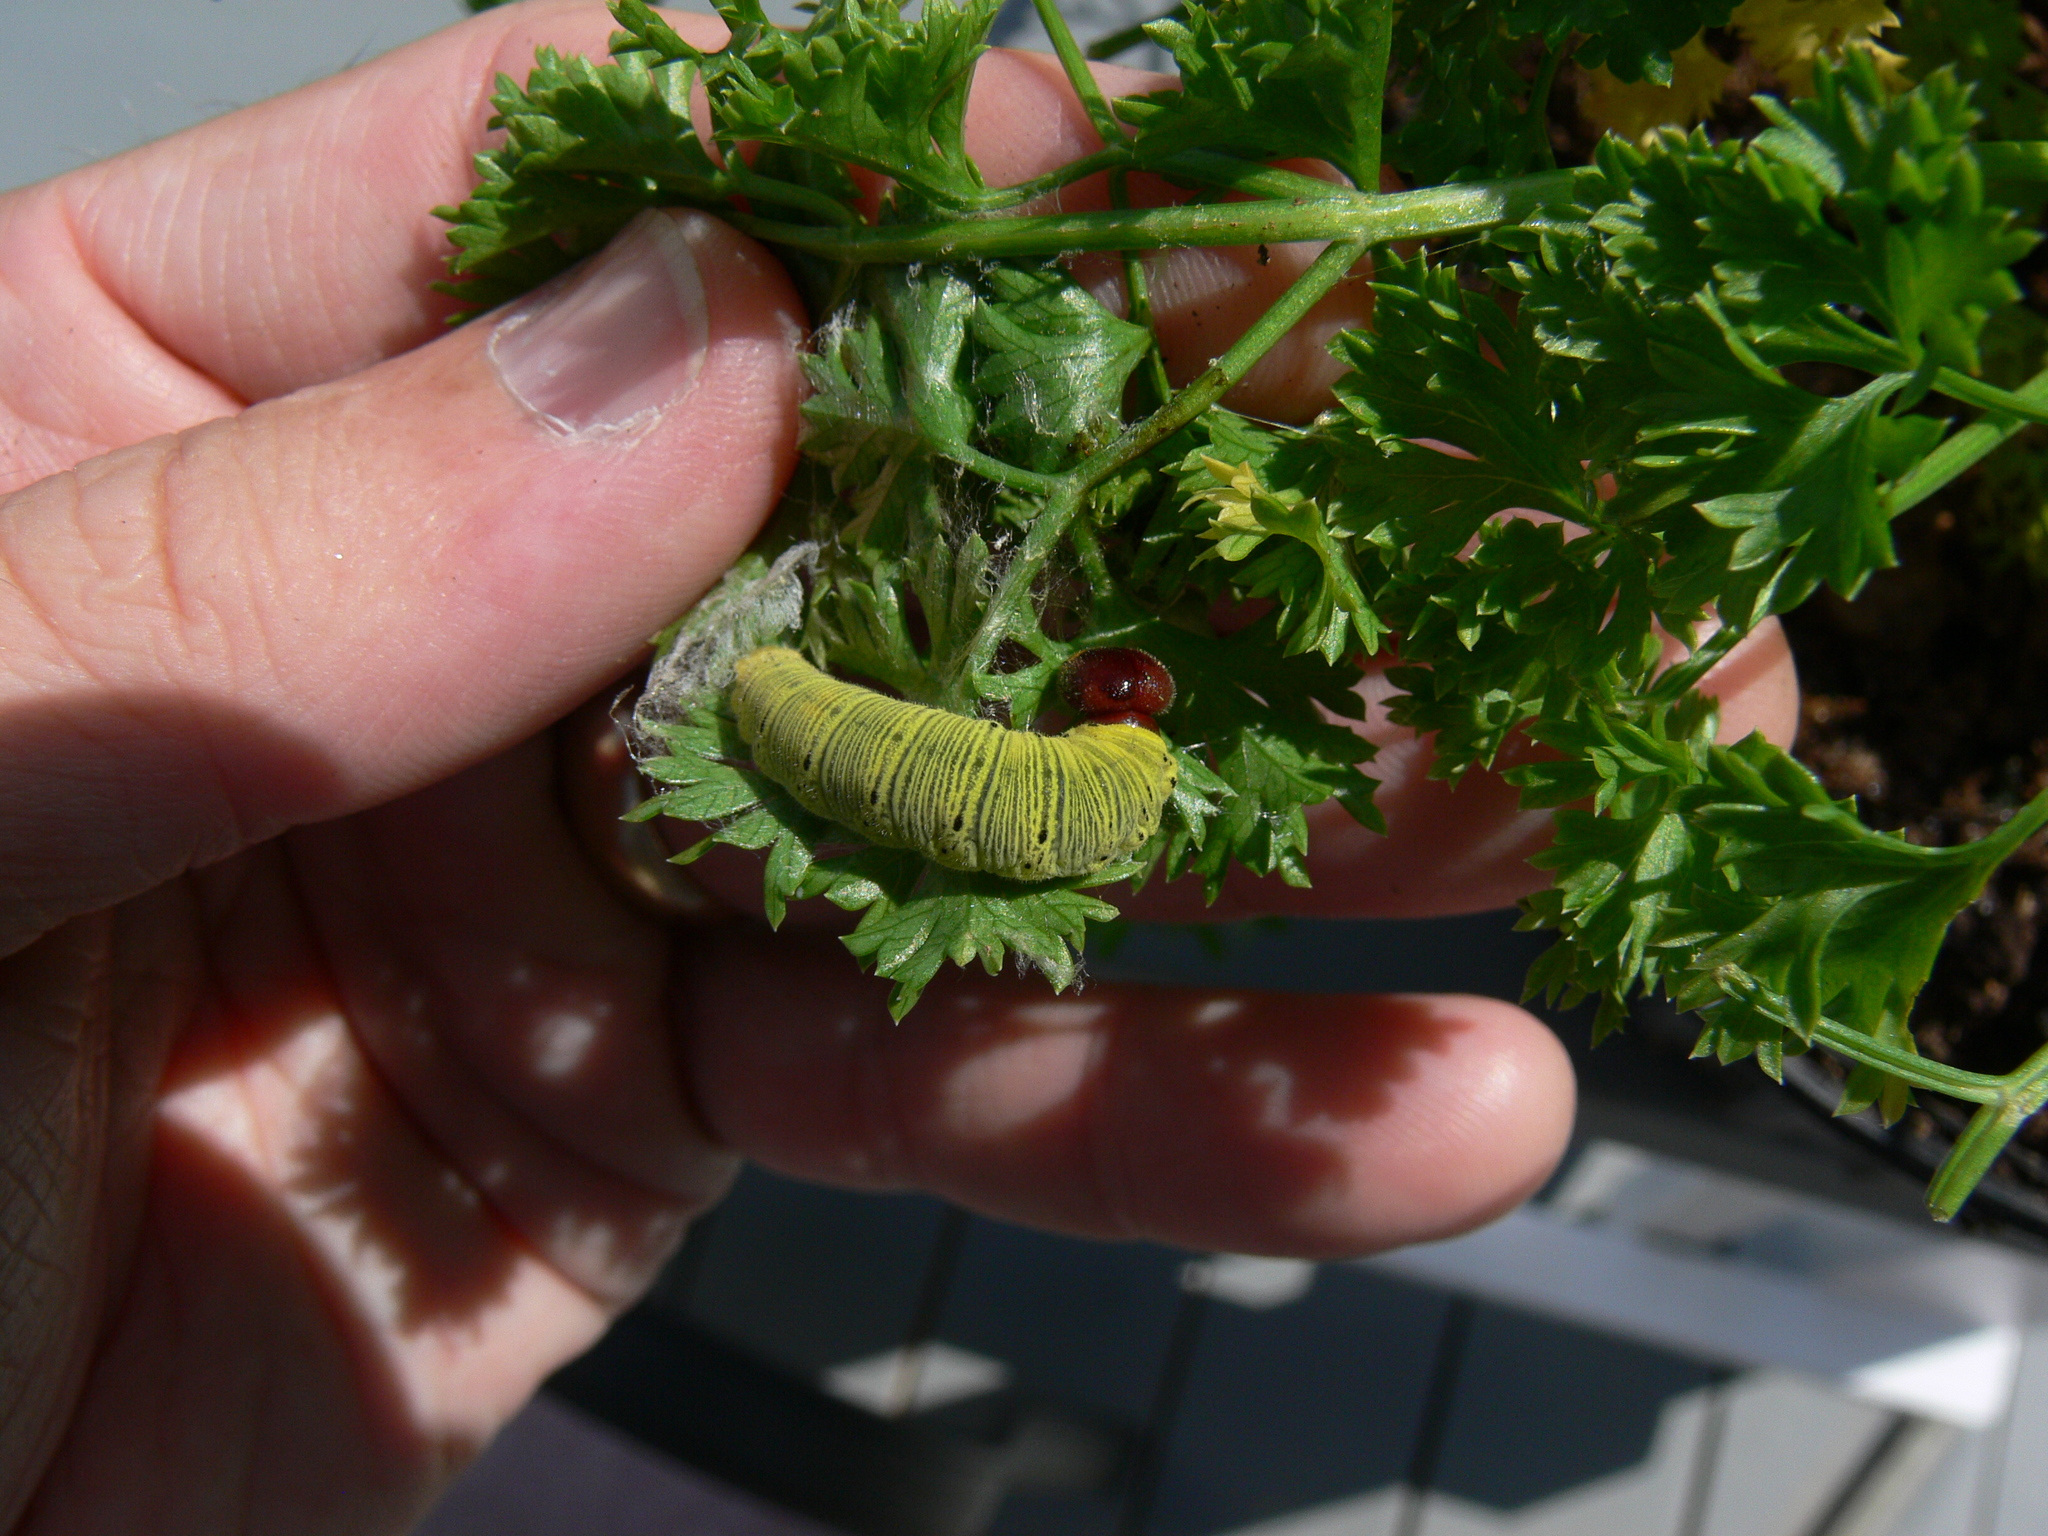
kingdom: Animalia
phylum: Arthropoda
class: Insecta
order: Lepidoptera
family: Hesperiidae
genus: Epargyreus
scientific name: Epargyreus clarus
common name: Silver-spotted skipper
